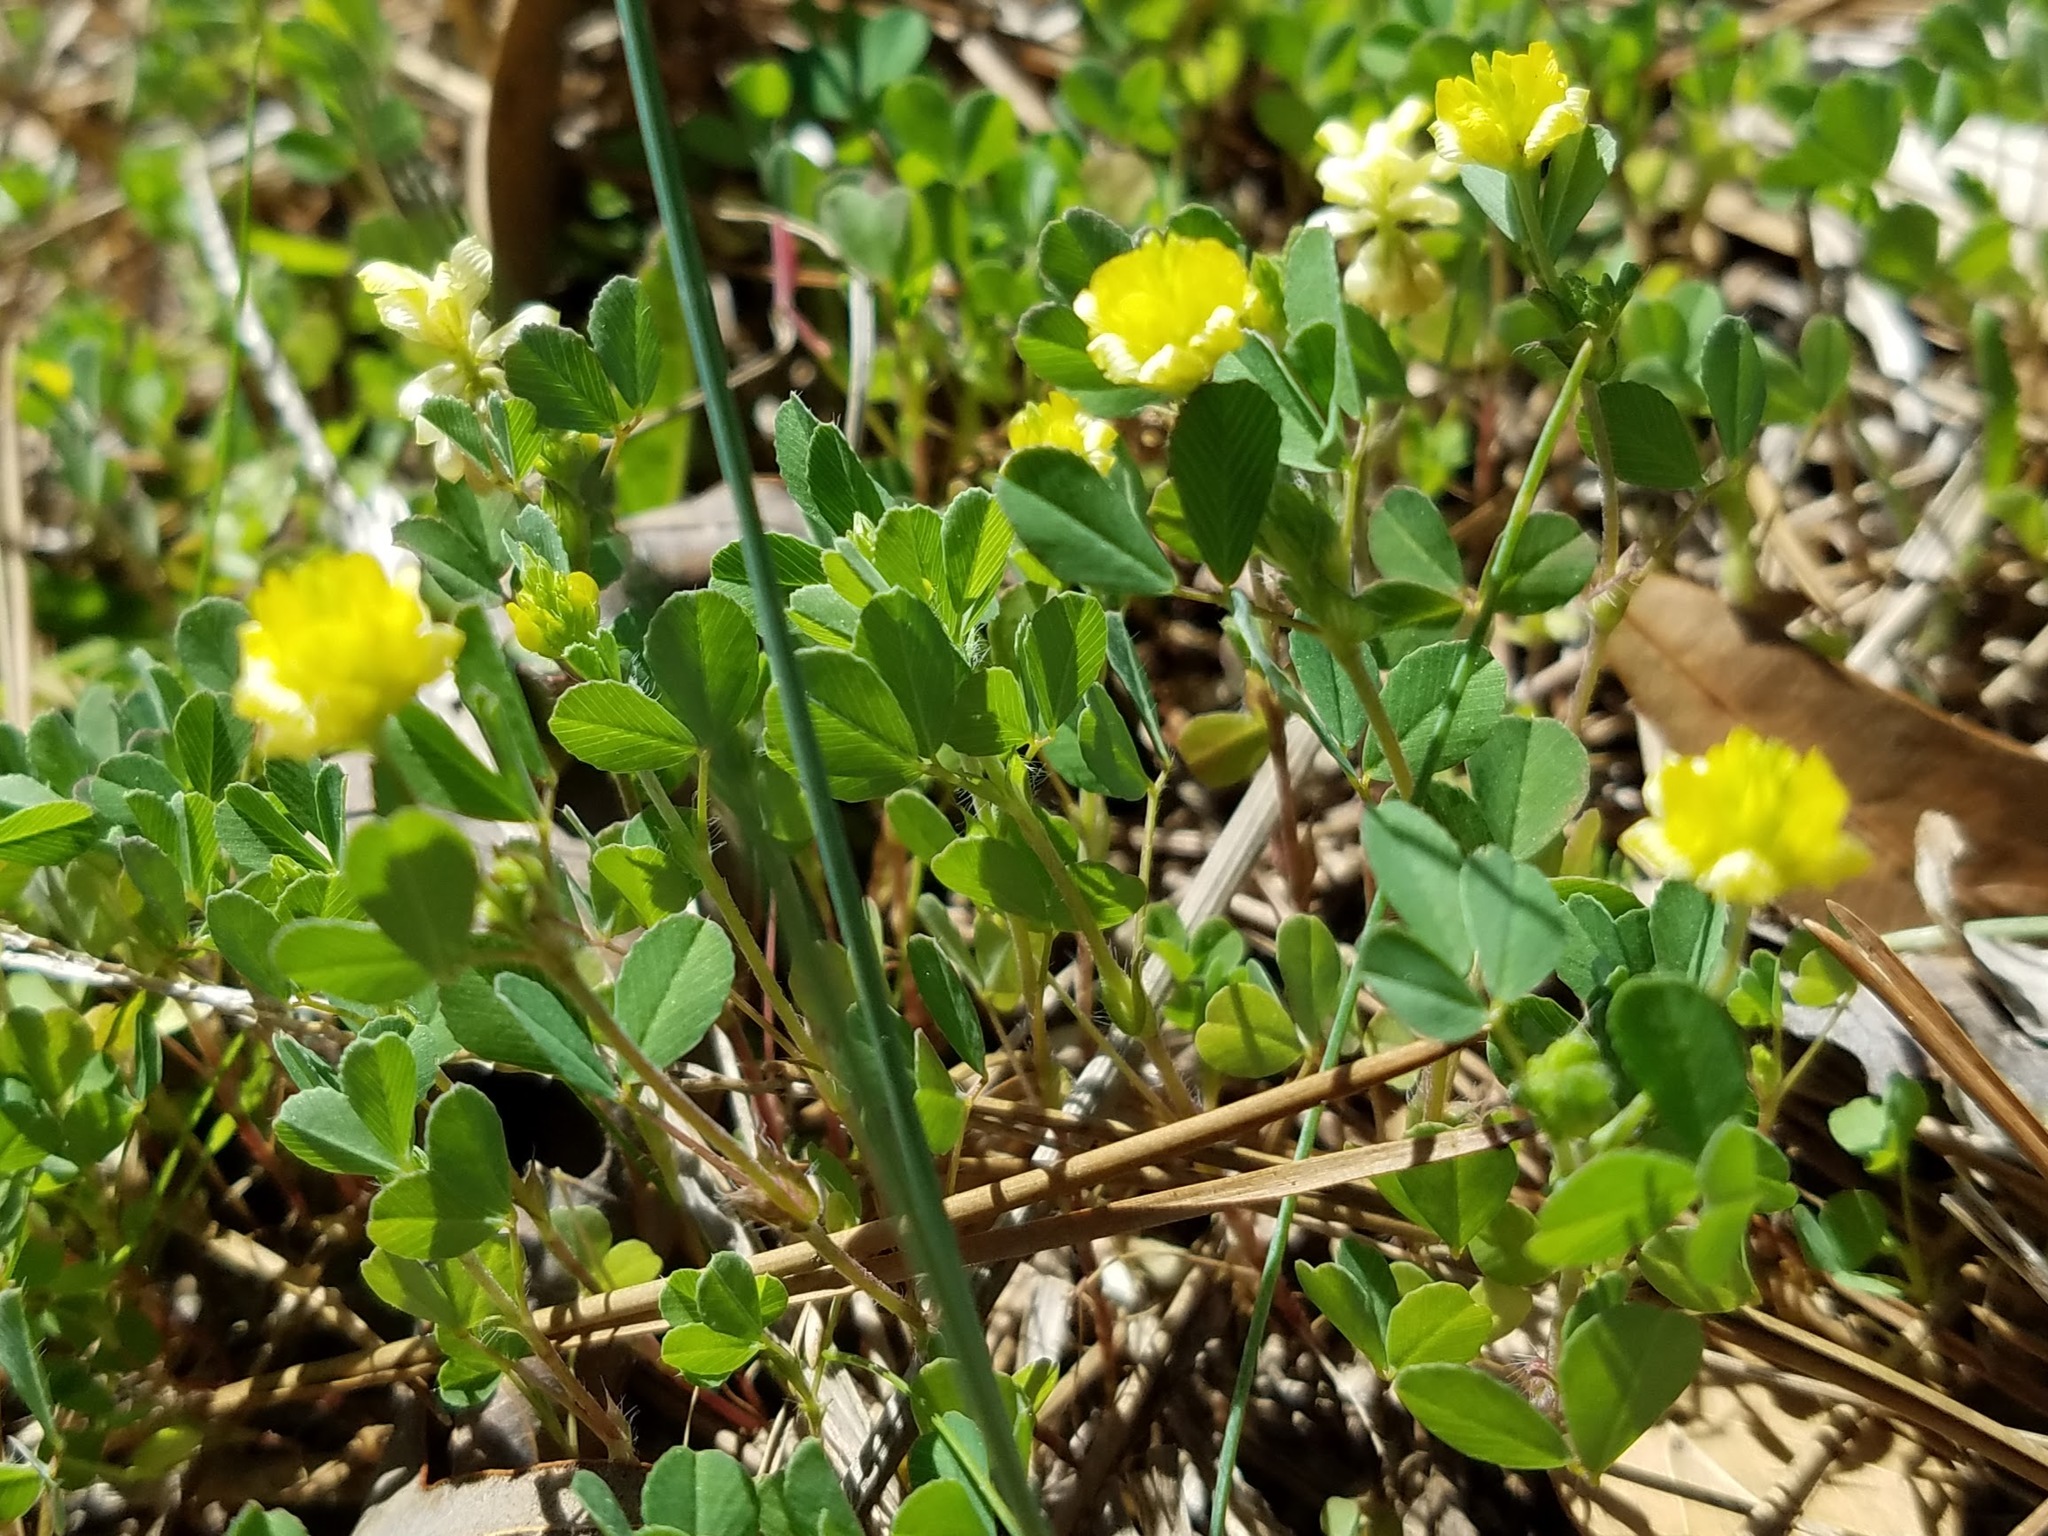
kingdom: Plantae
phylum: Tracheophyta
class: Magnoliopsida
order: Fabales
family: Fabaceae
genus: Trifolium
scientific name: Trifolium campestre
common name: Field clover
